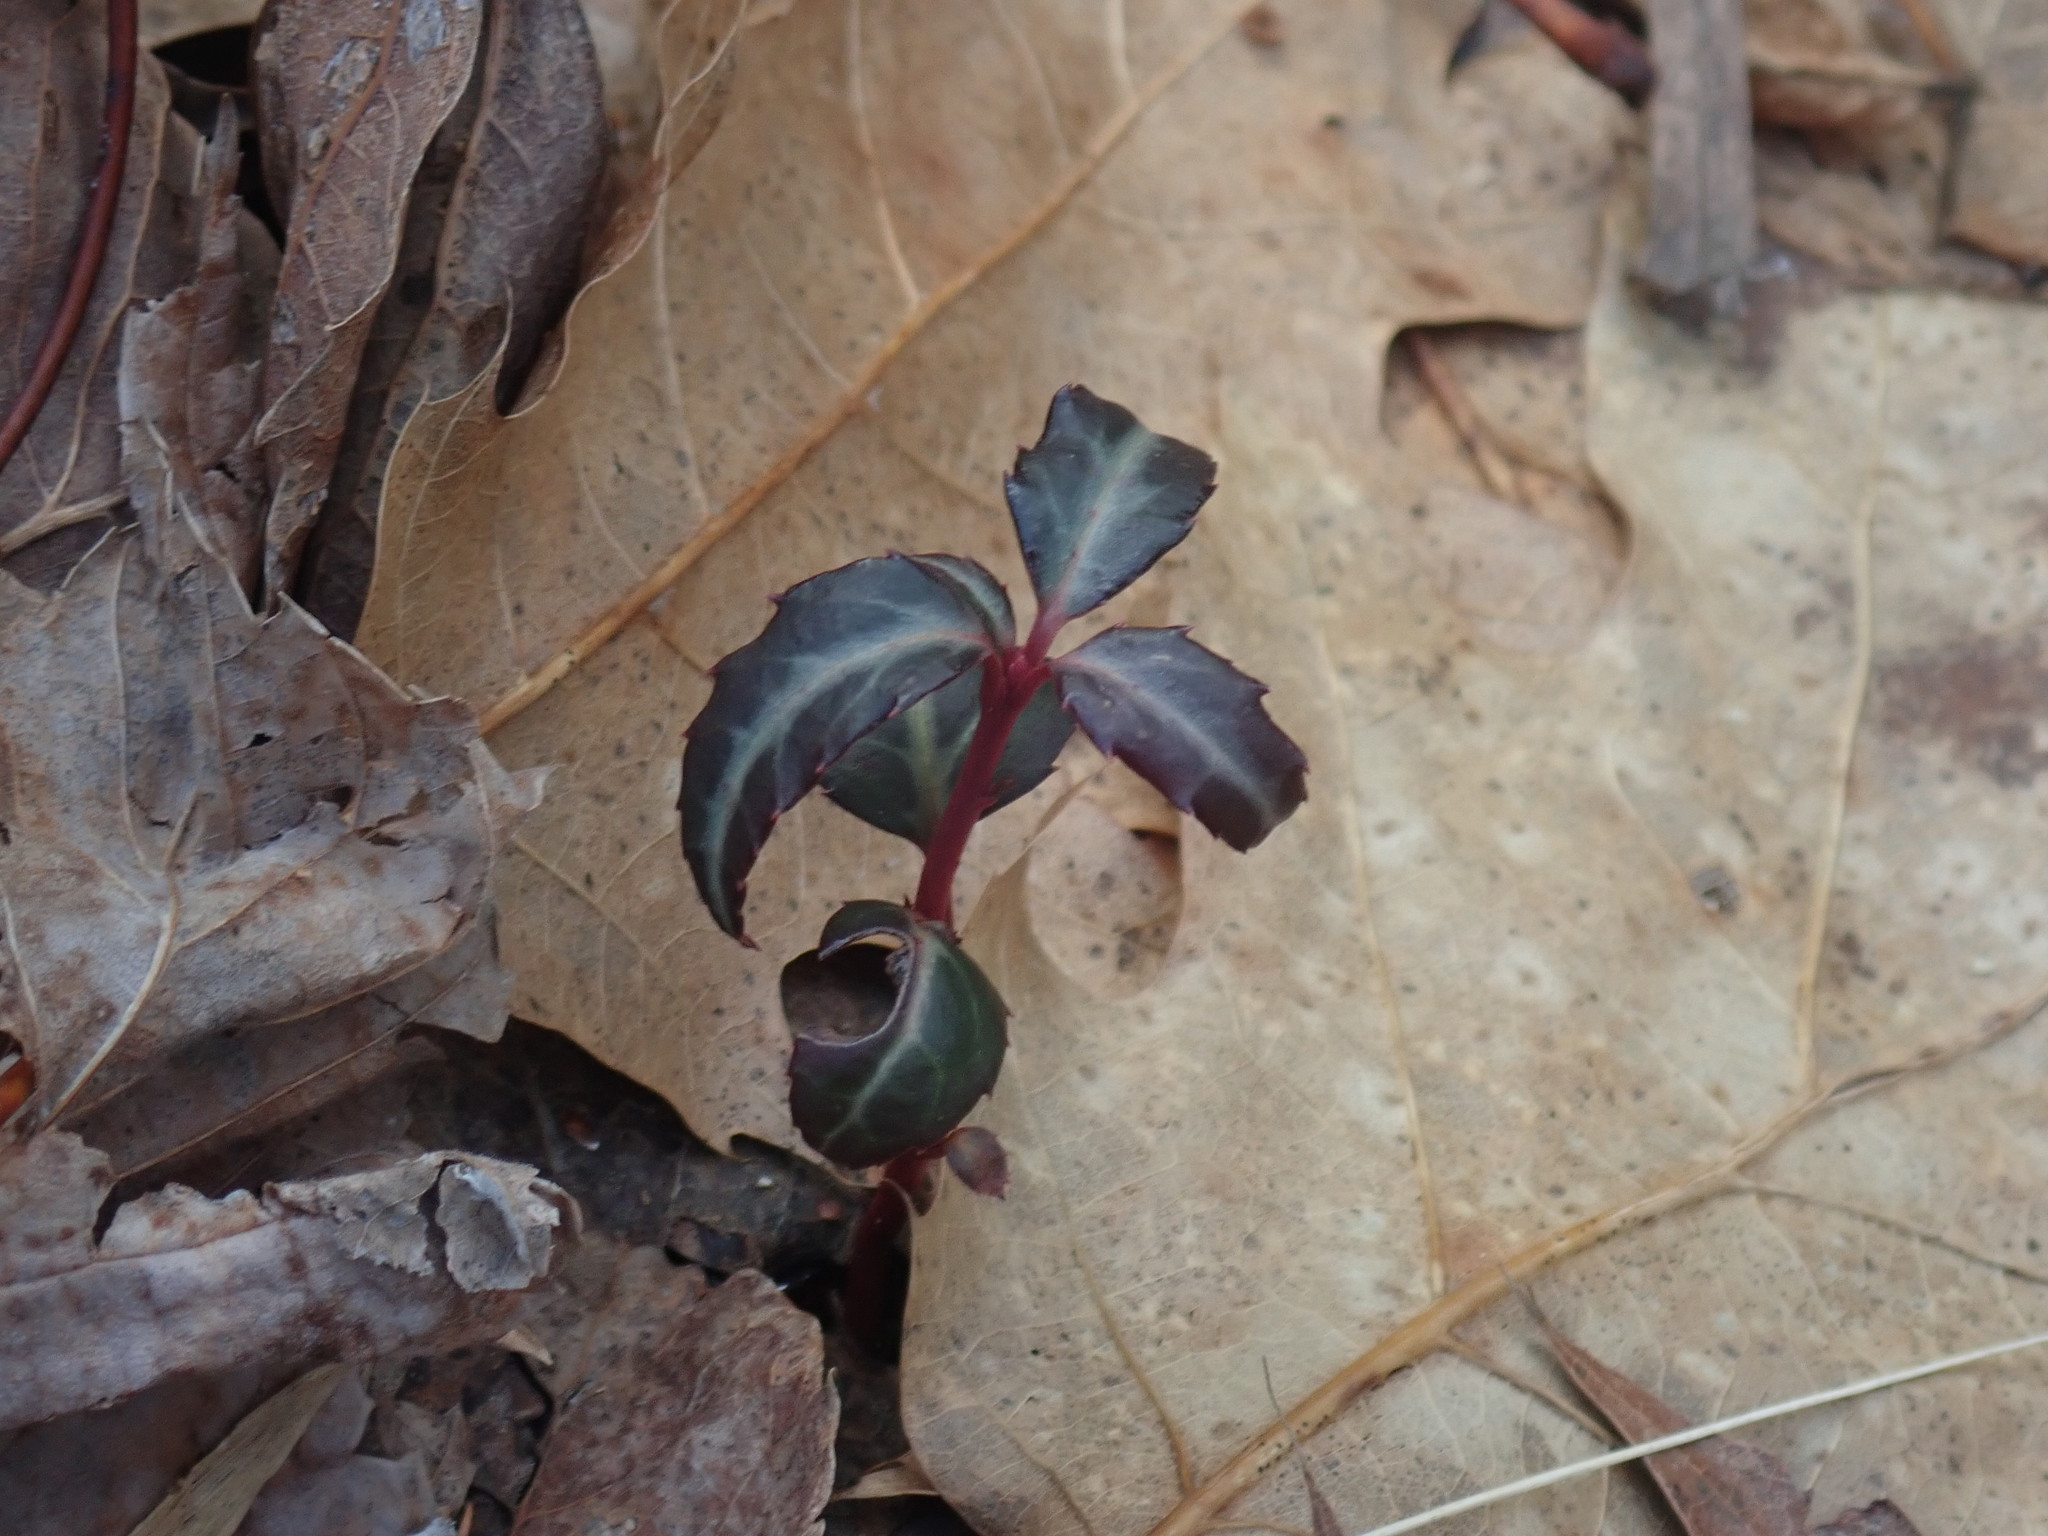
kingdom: Plantae
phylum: Tracheophyta
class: Magnoliopsida
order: Ericales
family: Ericaceae
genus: Chimaphila
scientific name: Chimaphila maculata
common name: Spotted pipsissewa
